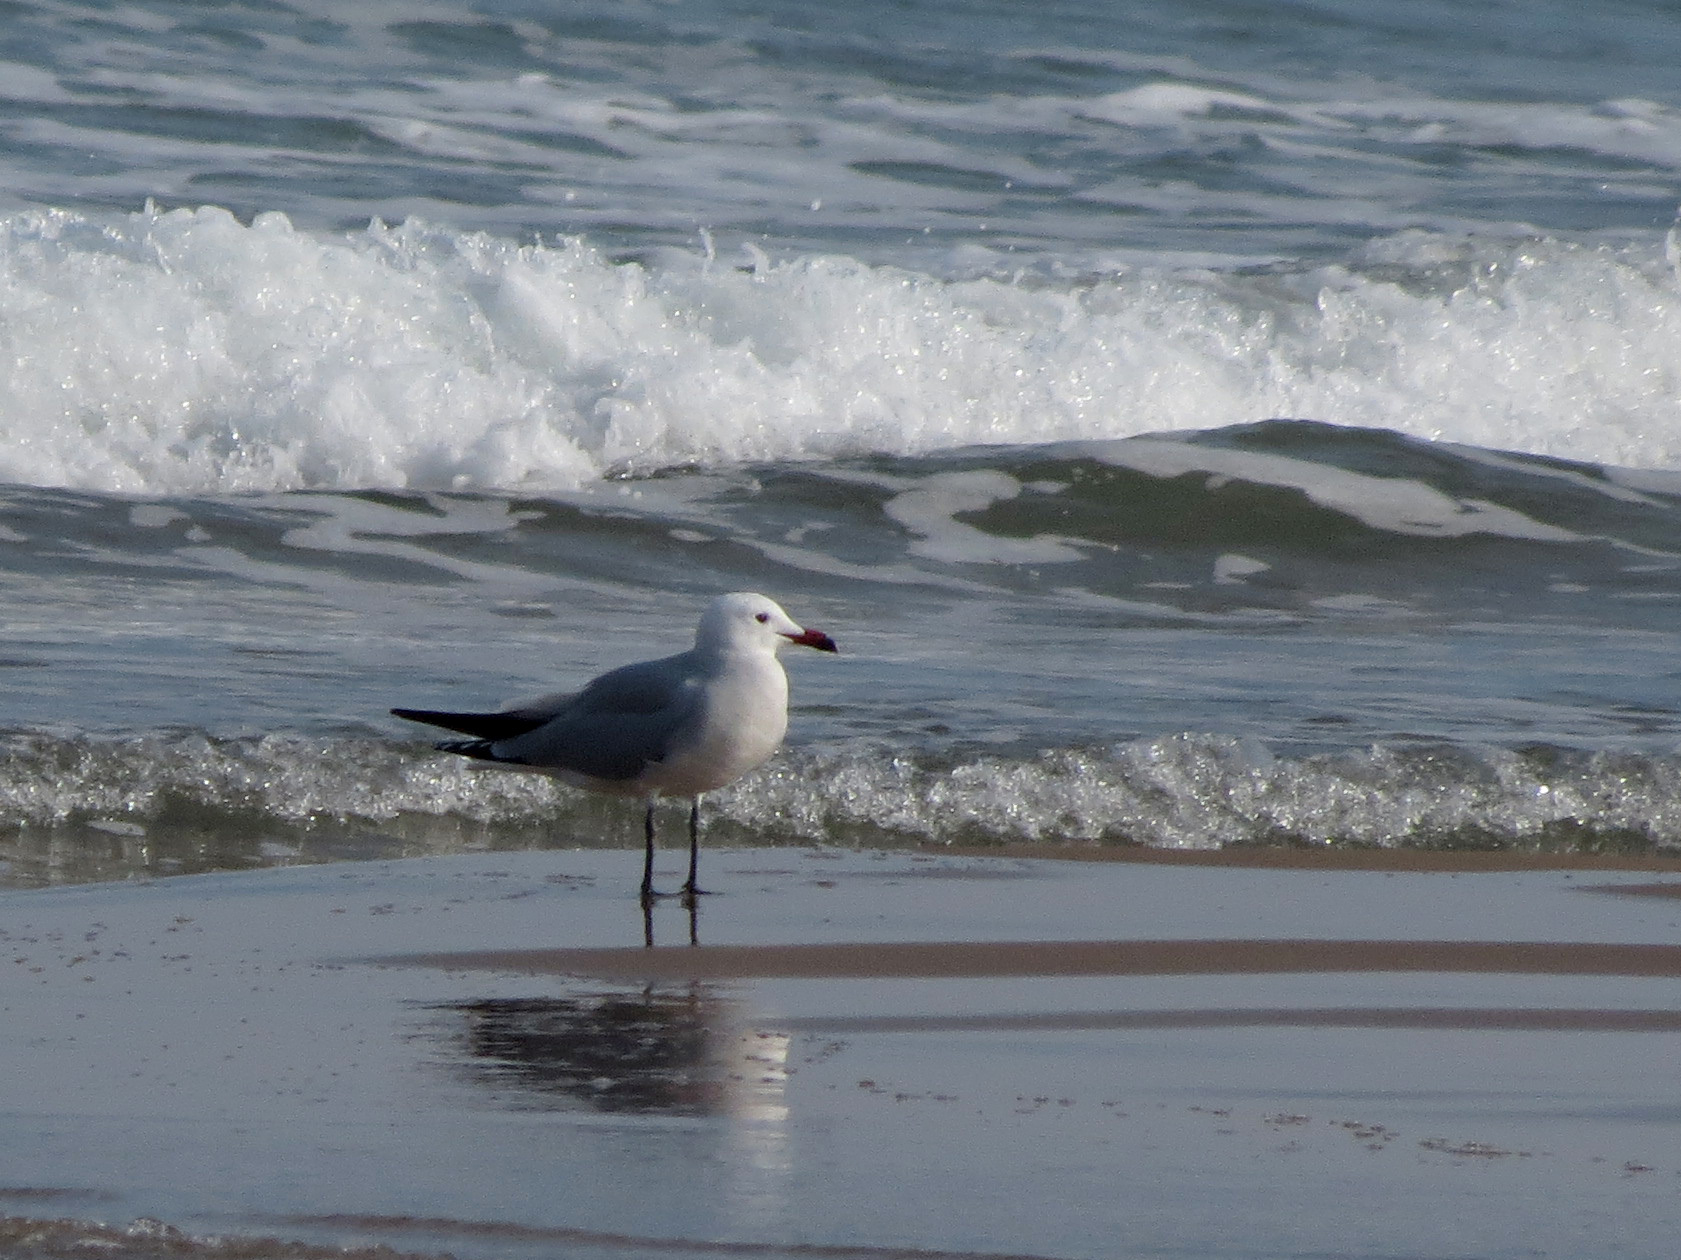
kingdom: Animalia
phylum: Chordata
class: Aves
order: Charadriiformes
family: Laridae
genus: Ichthyaetus
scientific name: Ichthyaetus audouinii
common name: Audouin's gull
